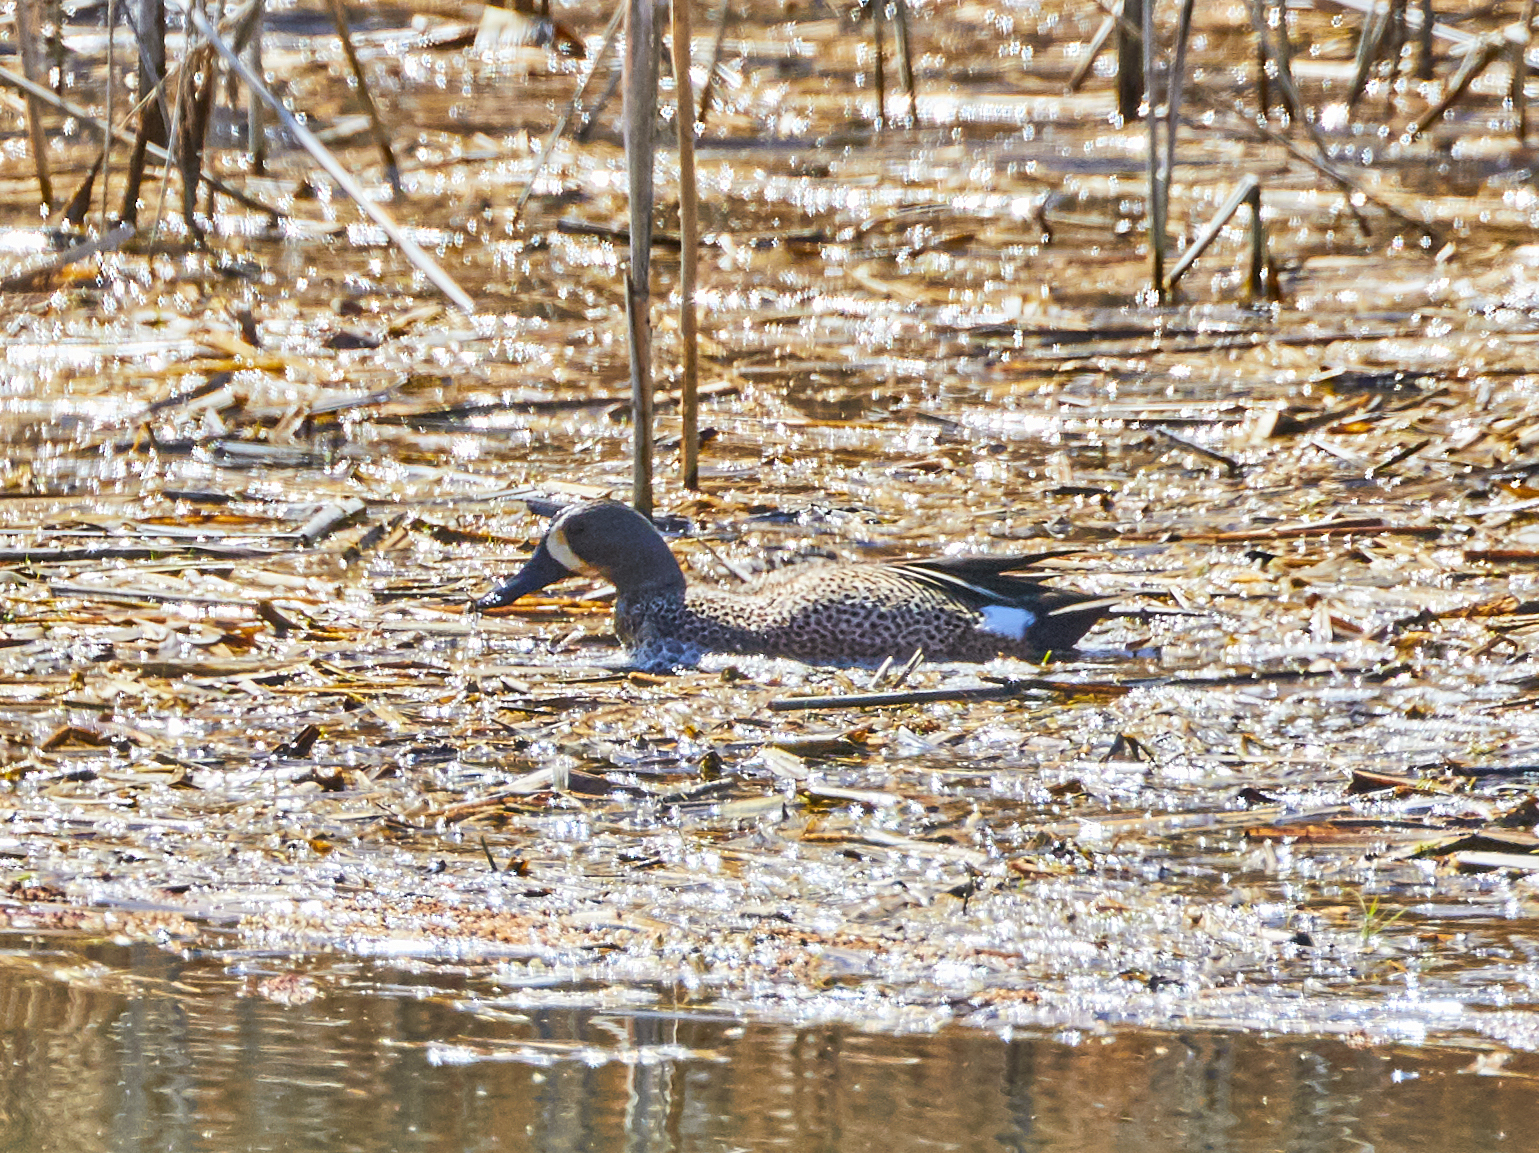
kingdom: Animalia
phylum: Chordata
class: Aves
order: Anseriformes
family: Anatidae
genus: Spatula
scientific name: Spatula discors
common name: Blue-winged teal
